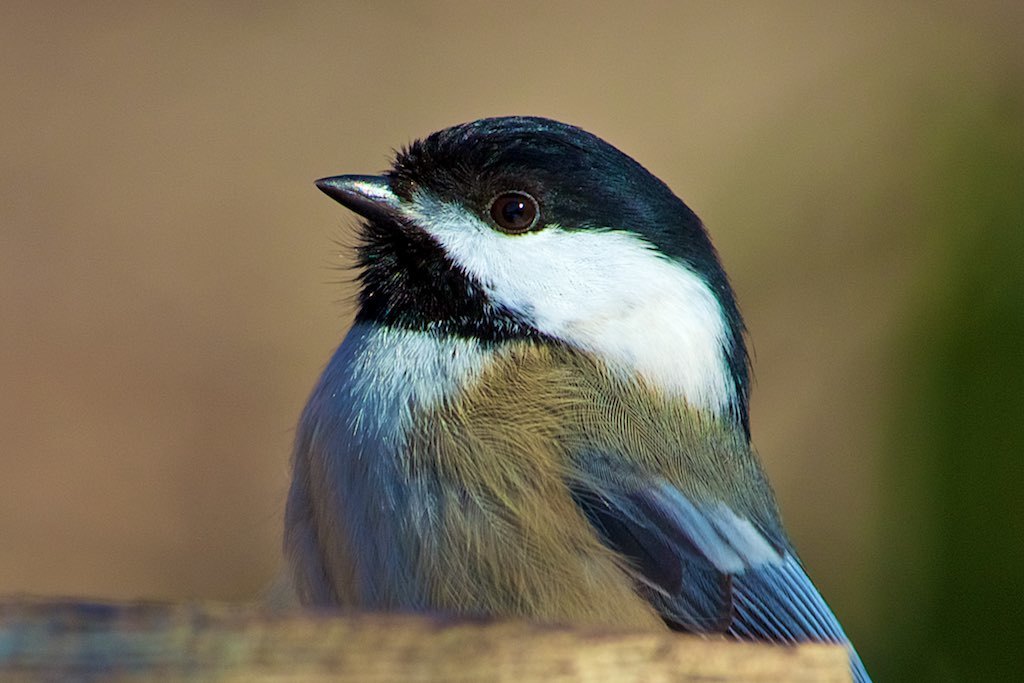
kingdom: Animalia
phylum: Chordata
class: Aves
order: Passeriformes
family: Paridae
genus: Poecile
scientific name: Poecile atricapillus
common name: Black-capped chickadee
